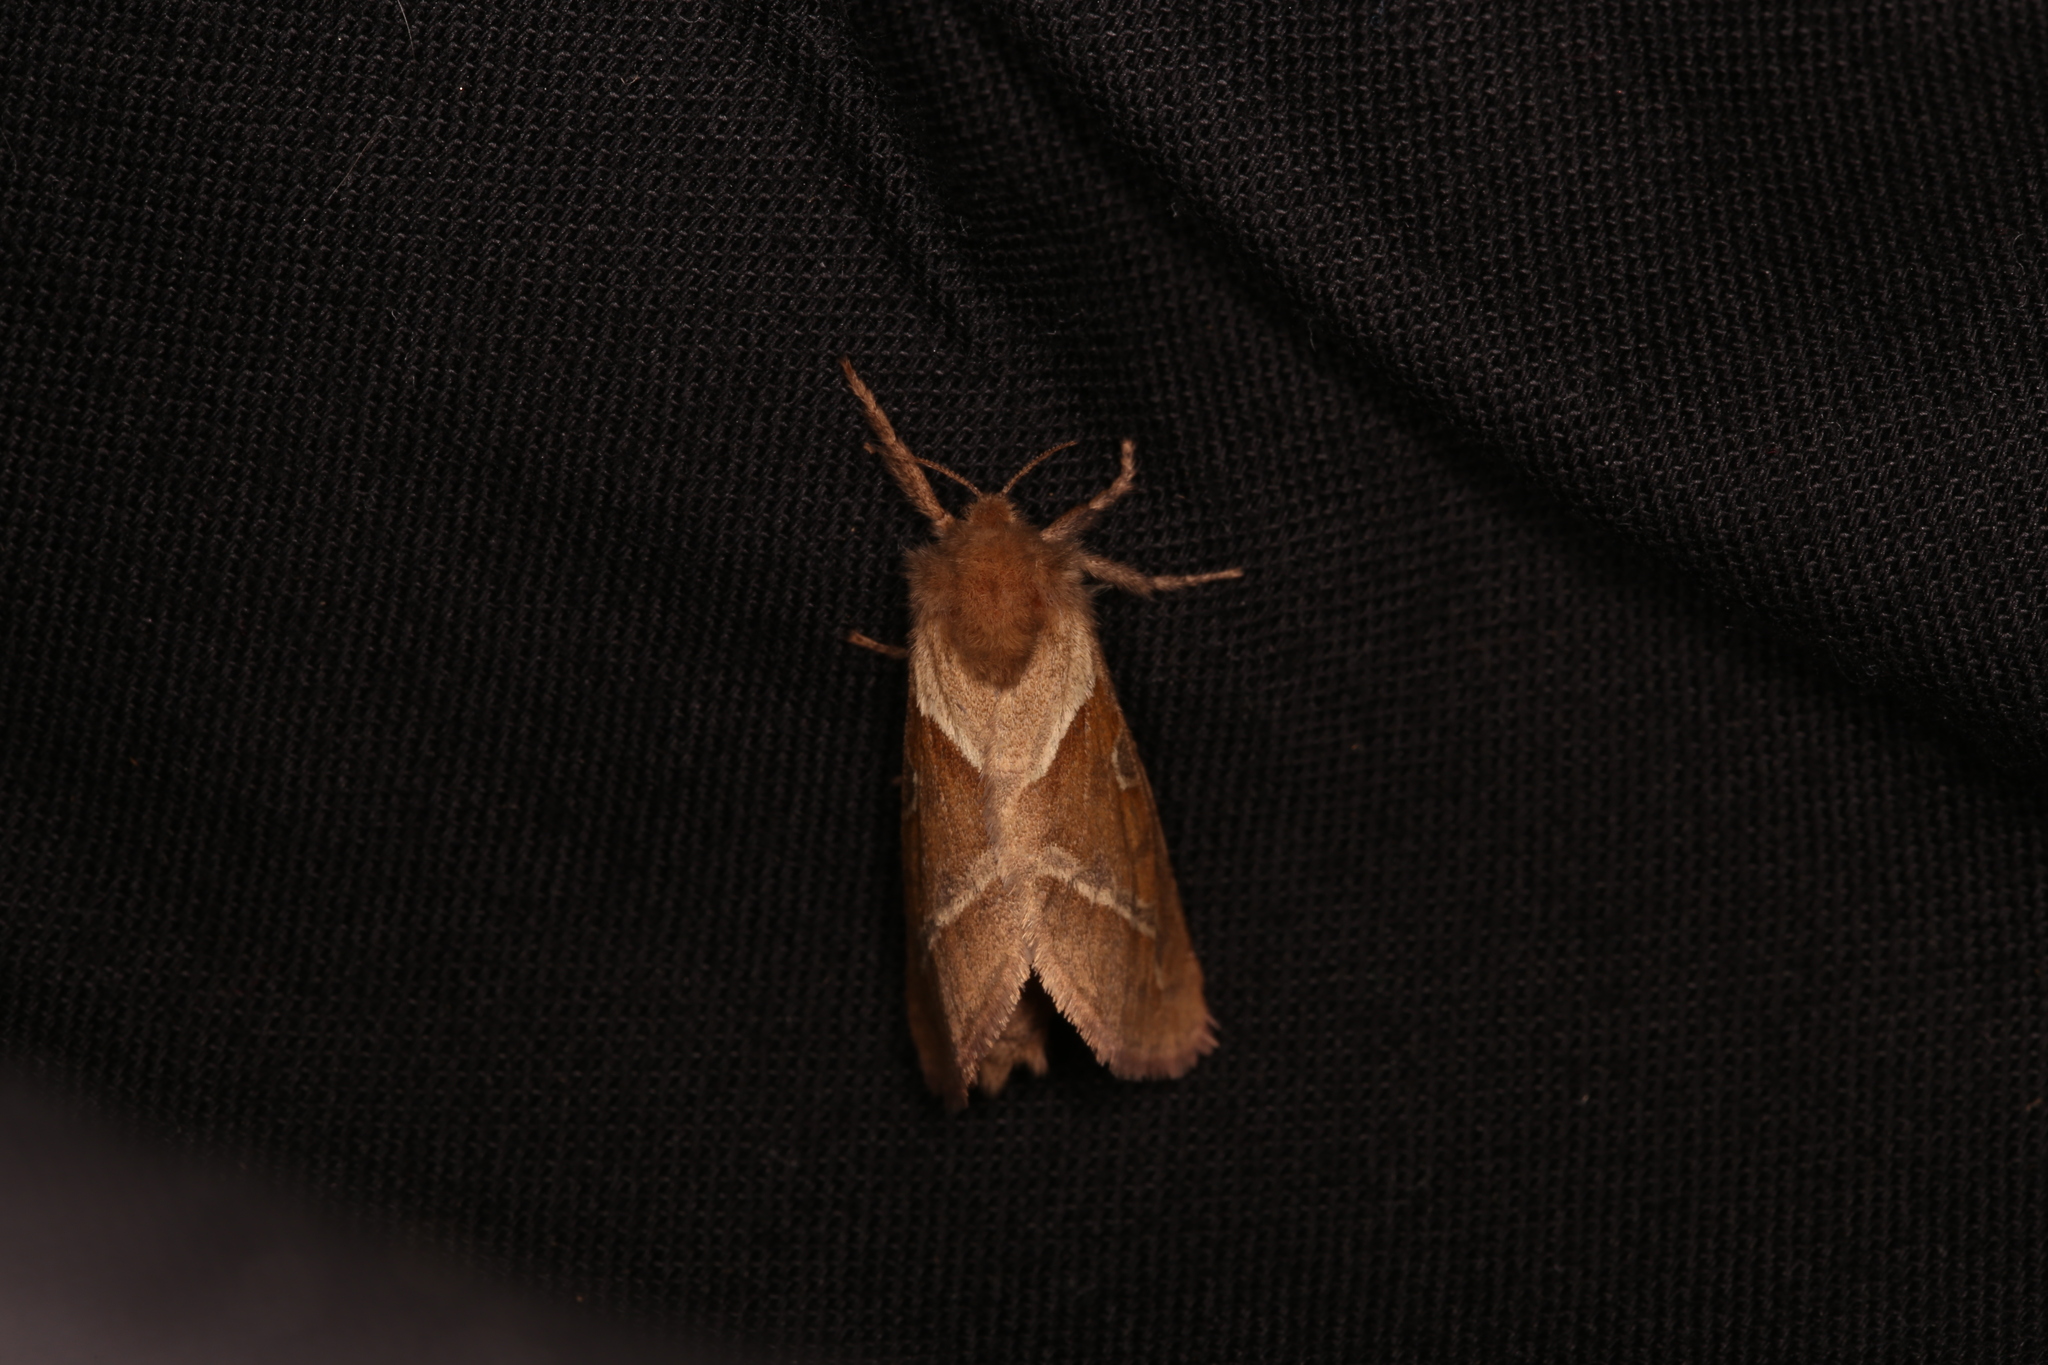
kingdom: Animalia
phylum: Arthropoda
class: Insecta
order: Lepidoptera
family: Hepialidae
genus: Triodia
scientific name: Triodia sylvina
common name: Orange swift
